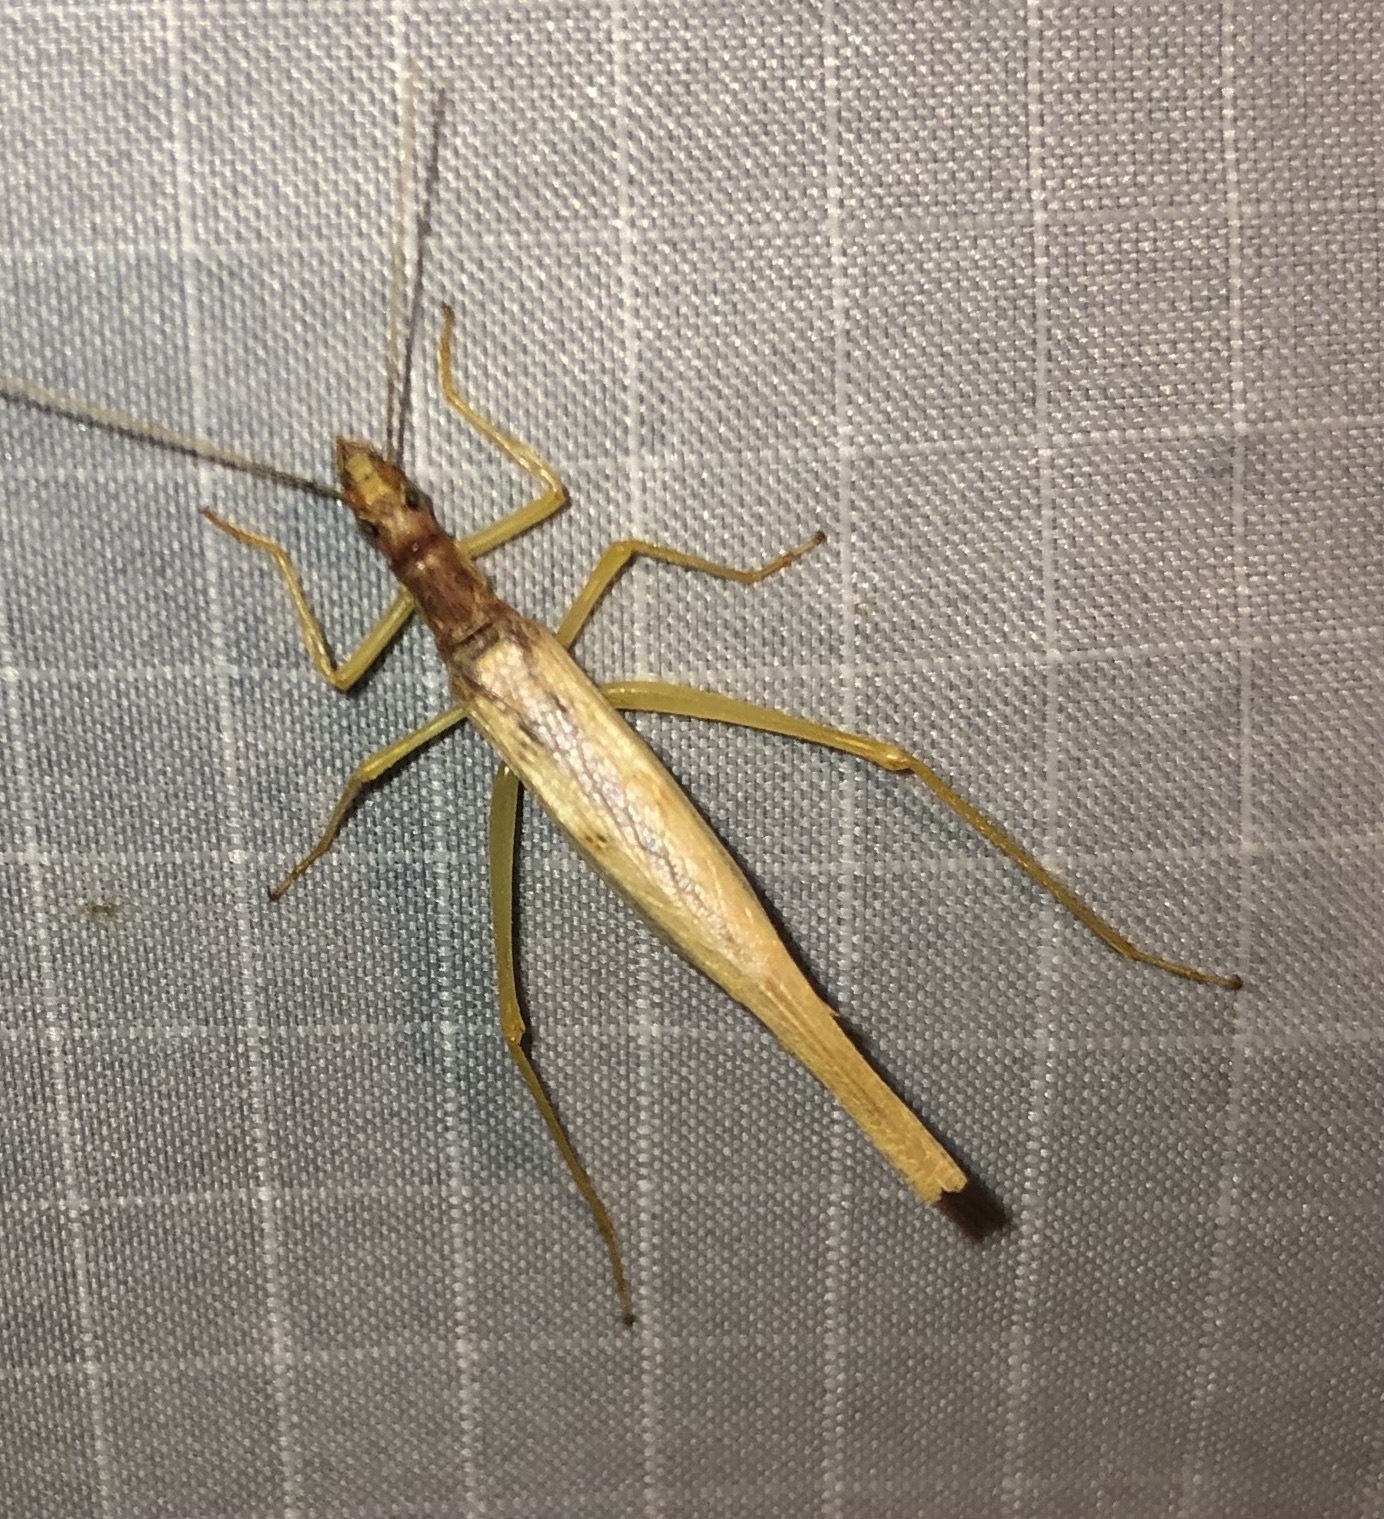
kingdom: Animalia
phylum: Arthropoda
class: Insecta
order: Orthoptera
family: Gryllidae
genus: Neoxabea
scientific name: Neoxabea bipunctata
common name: Two-spotted tree cricket
